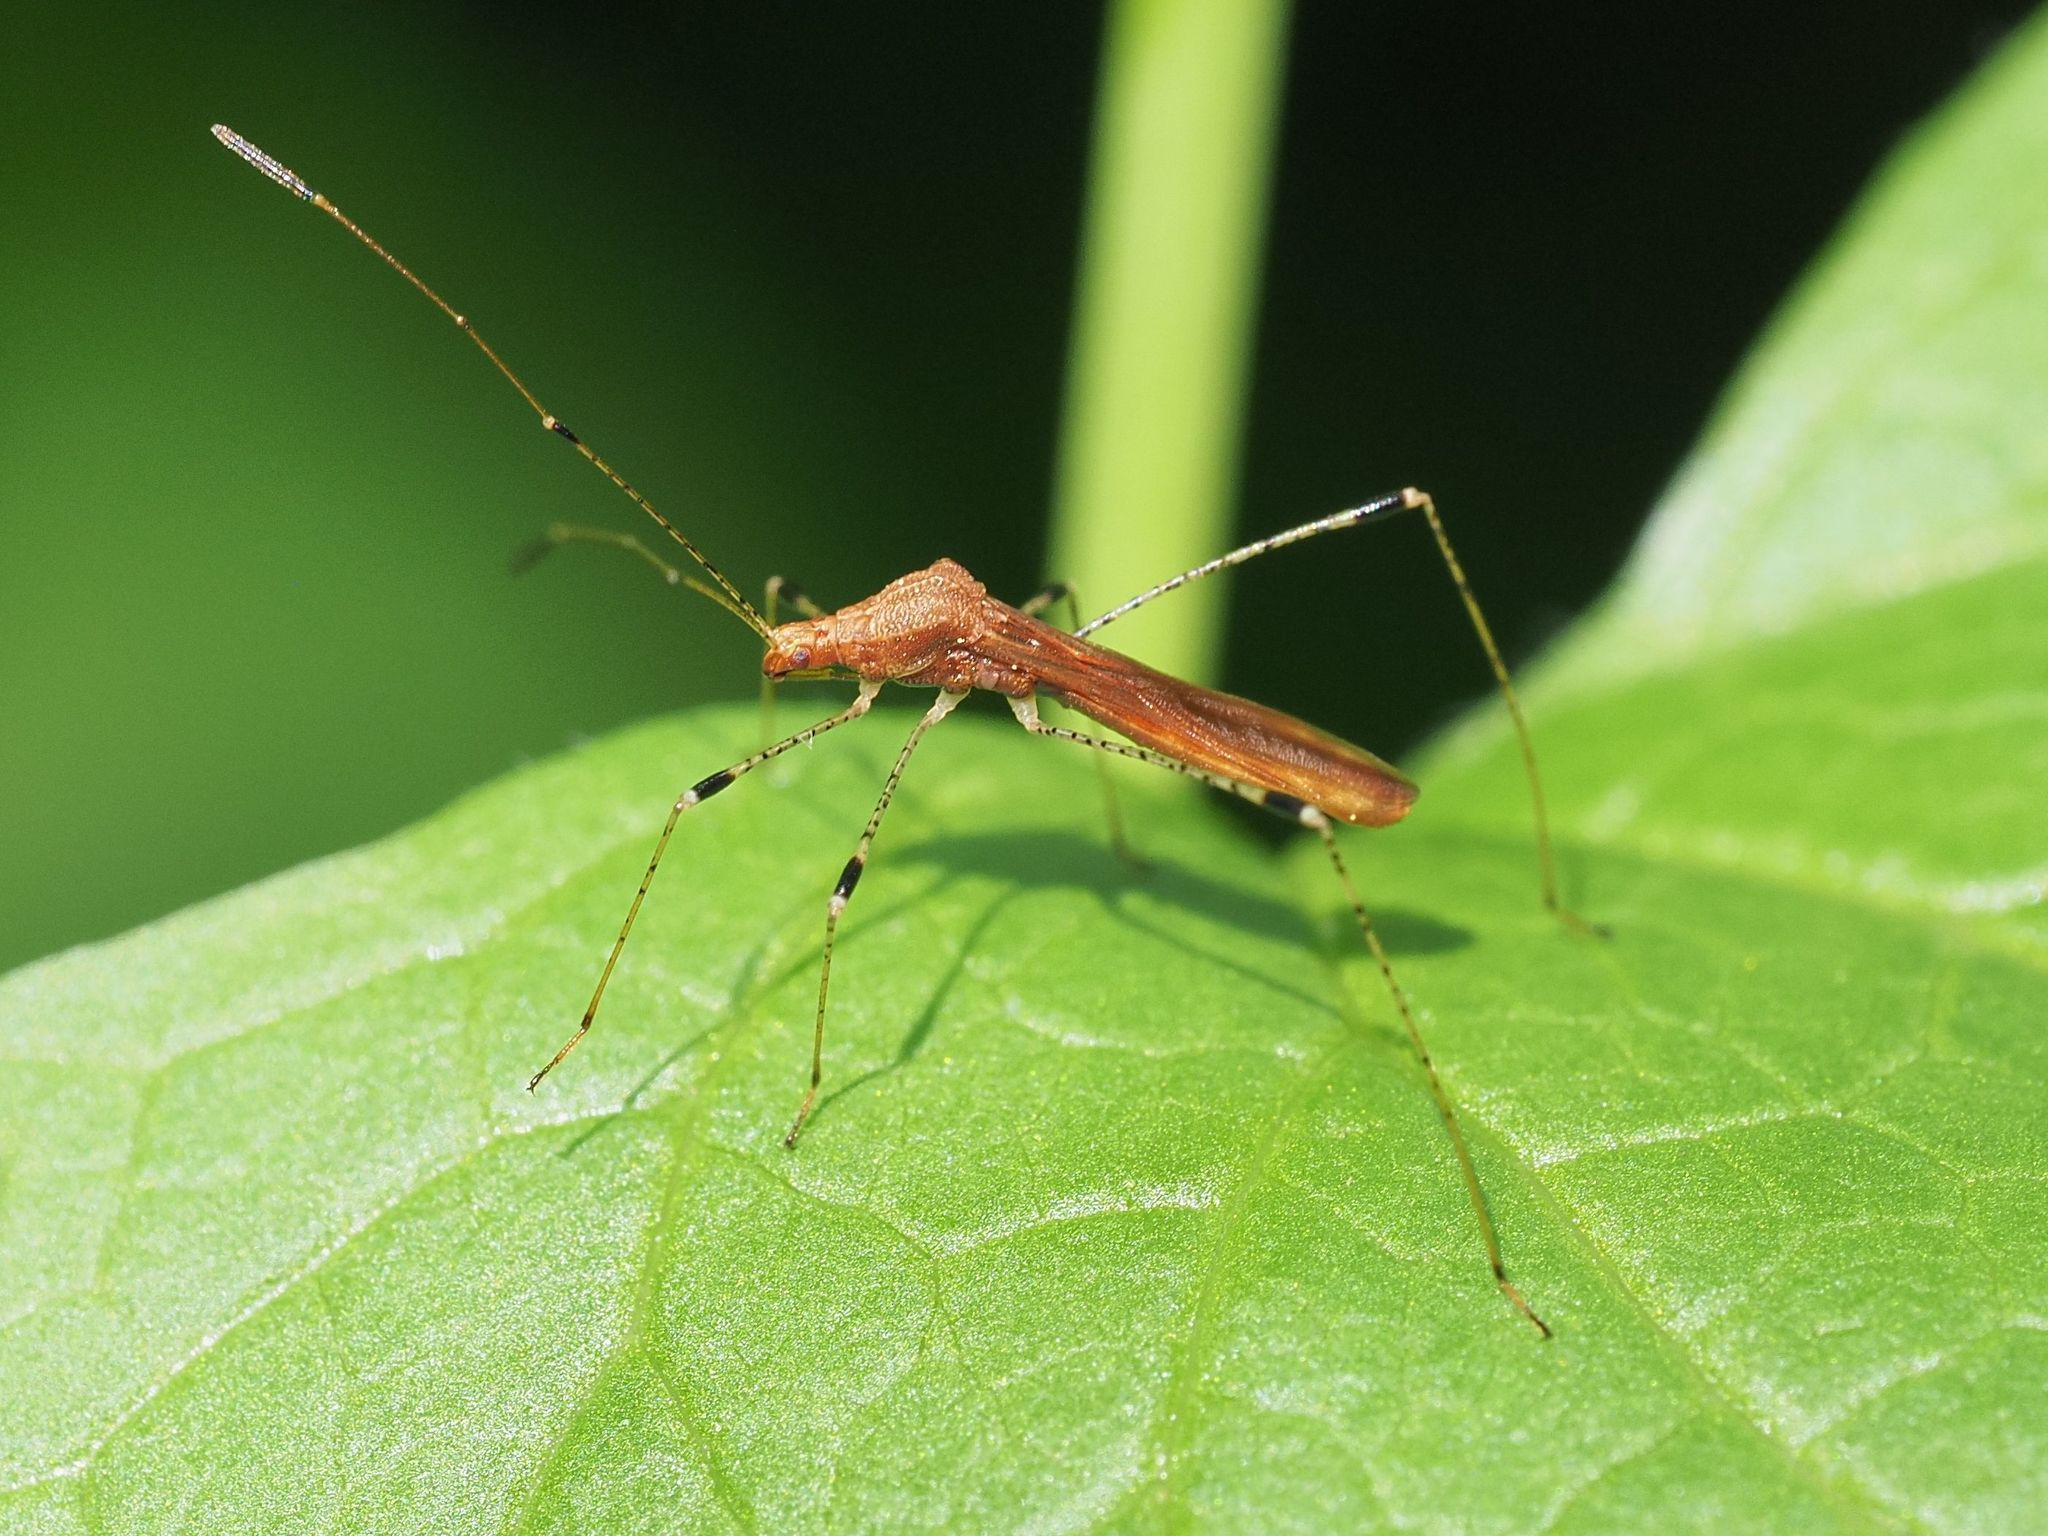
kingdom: Animalia
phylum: Arthropoda
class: Insecta
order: Hemiptera
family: Berytidae
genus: Metatropis
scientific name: Metatropis rufescens
